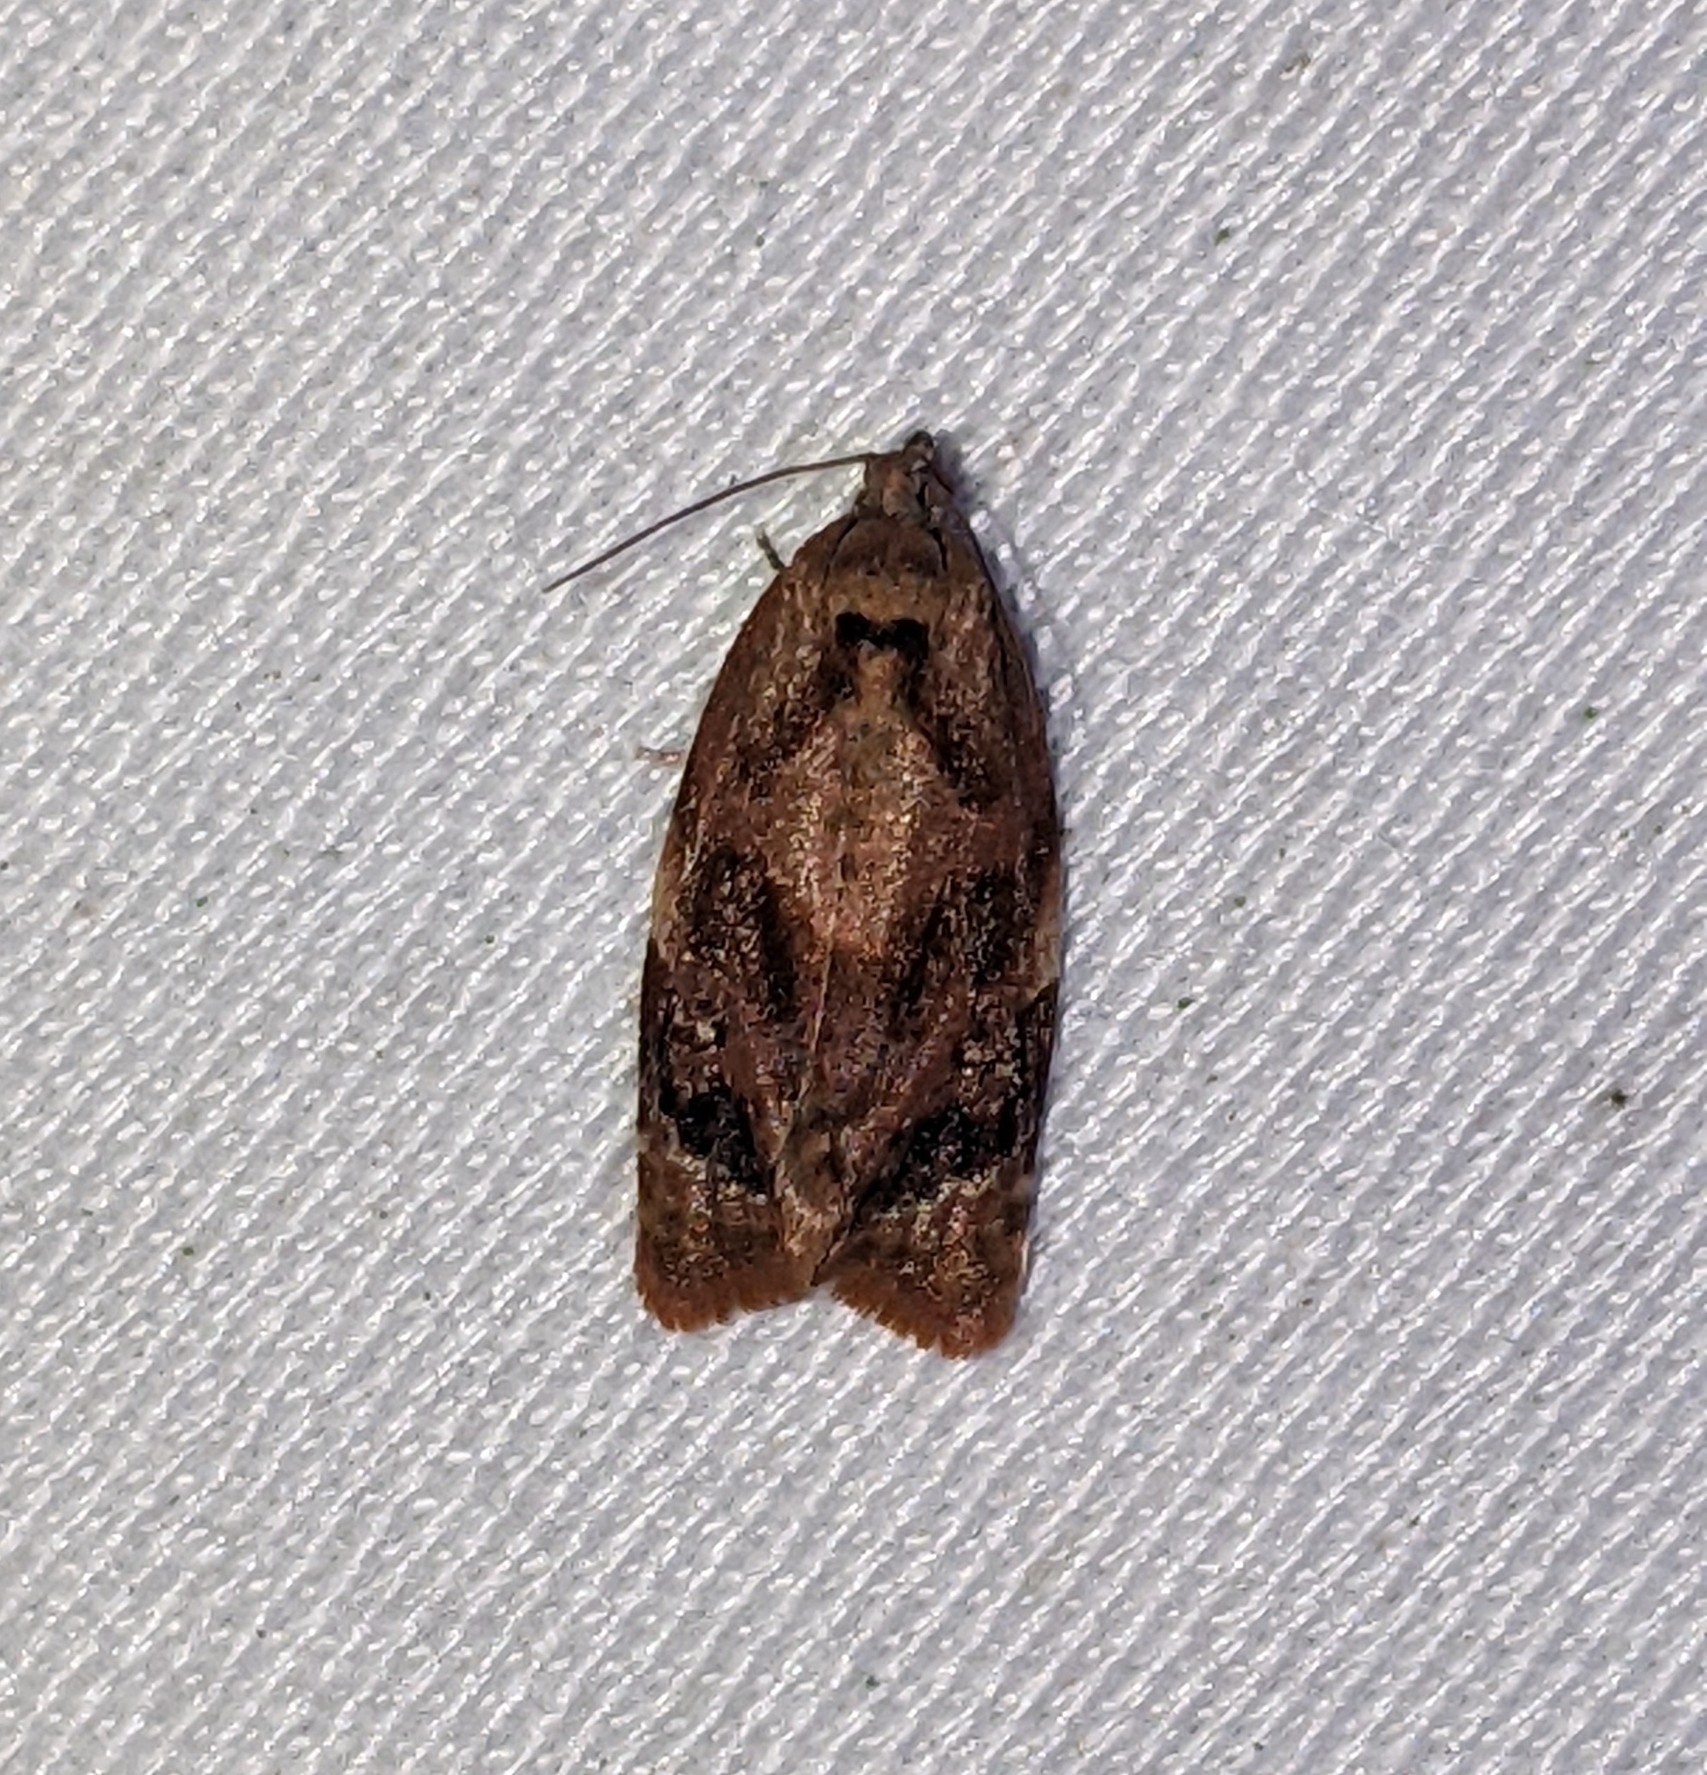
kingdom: Animalia
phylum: Arthropoda
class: Insecta
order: Lepidoptera
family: Tortricidae
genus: Ditula
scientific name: Ditula angustiorana
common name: Red-barred tortrix
